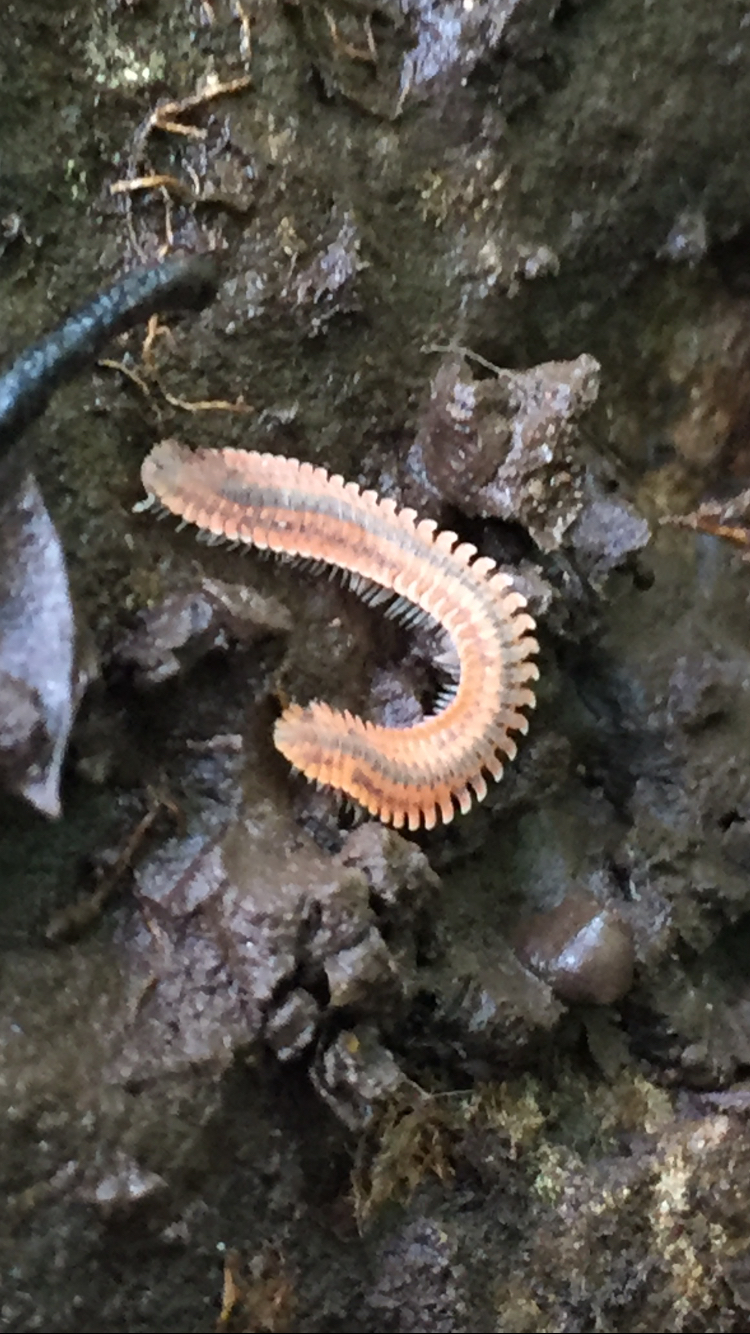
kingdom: Animalia
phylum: Arthropoda
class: Diplopoda
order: Platydesmida
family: Andrognathidae
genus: Brachycybe
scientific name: Brachycybe producta
